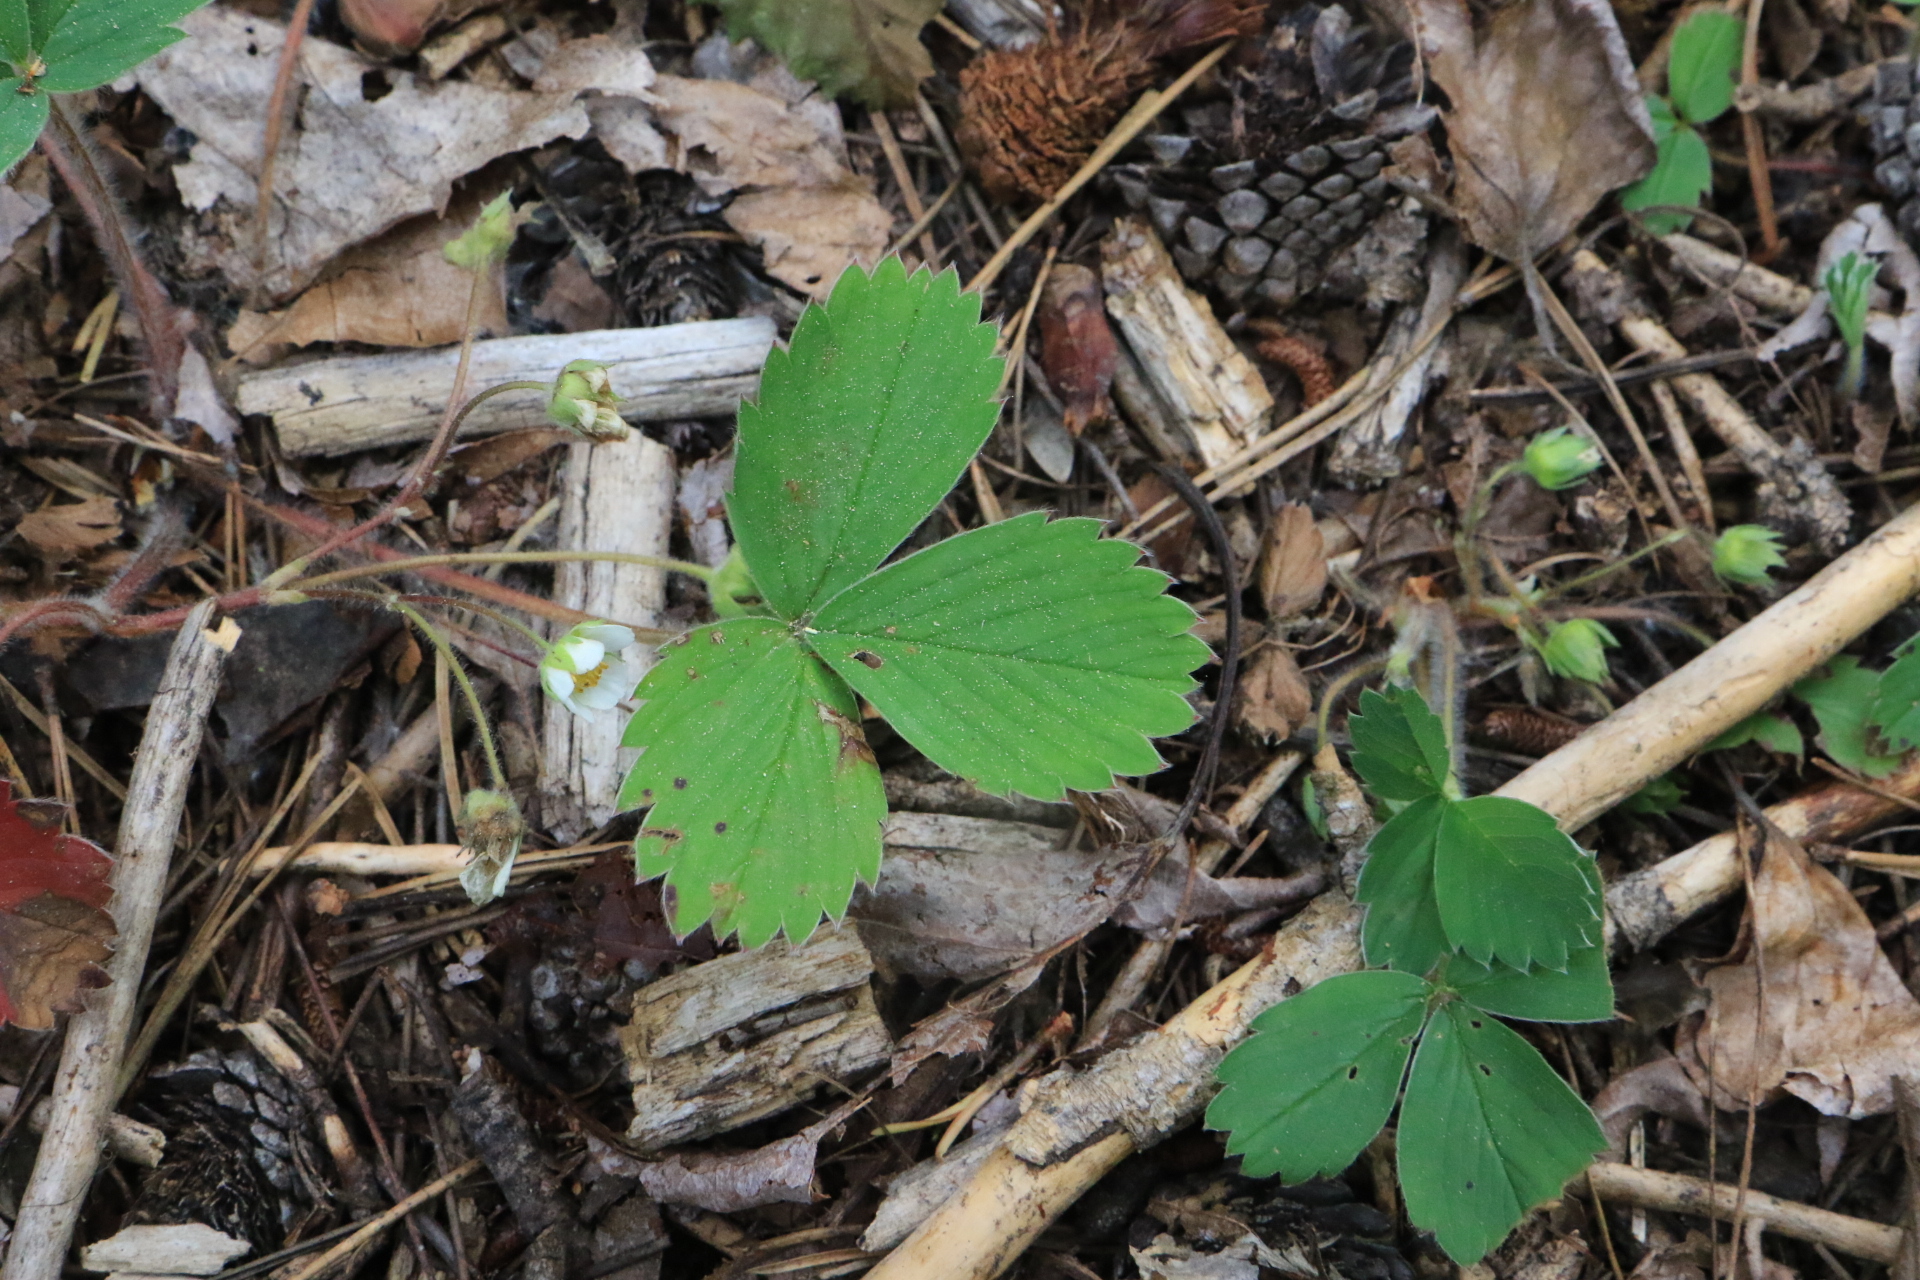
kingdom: Plantae
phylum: Tracheophyta
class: Magnoliopsida
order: Rosales
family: Rosaceae
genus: Fragaria
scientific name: Fragaria virginiana
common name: Thickleaved wild strawberry
